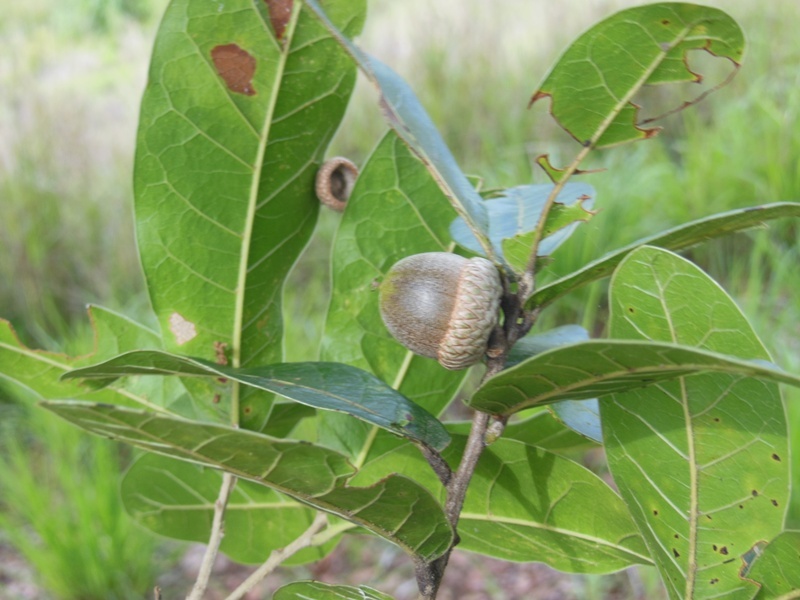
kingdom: Plantae
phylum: Tracheophyta
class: Magnoliopsida
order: Fagales
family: Fagaceae
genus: Quercus
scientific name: Quercus elliptica
